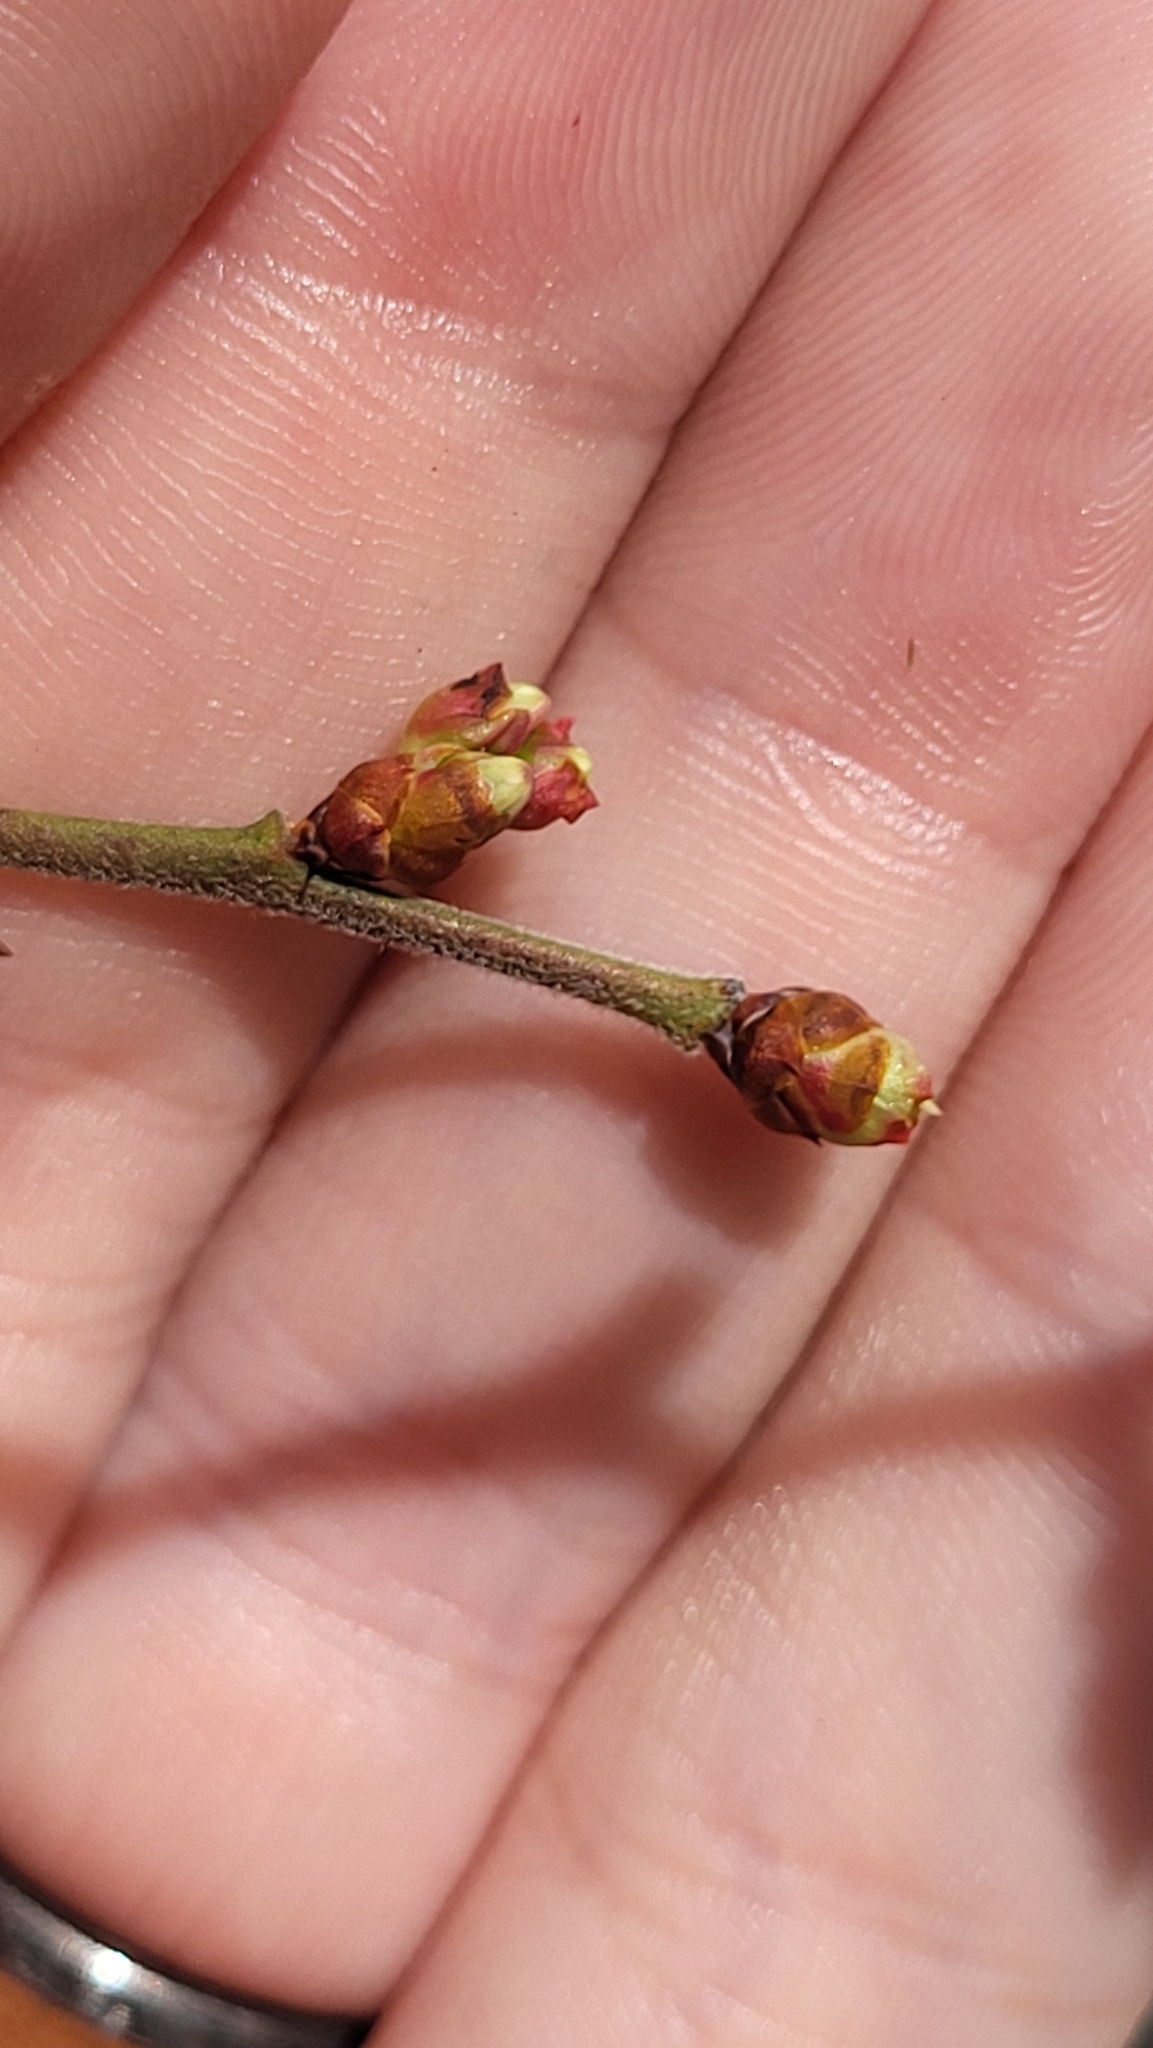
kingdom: Plantae
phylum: Tracheophyta
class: Magnoliopsida
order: Ericales
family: Ericaceae
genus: Vaccinium
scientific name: Vaccinium corymbosum
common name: Blueberry
